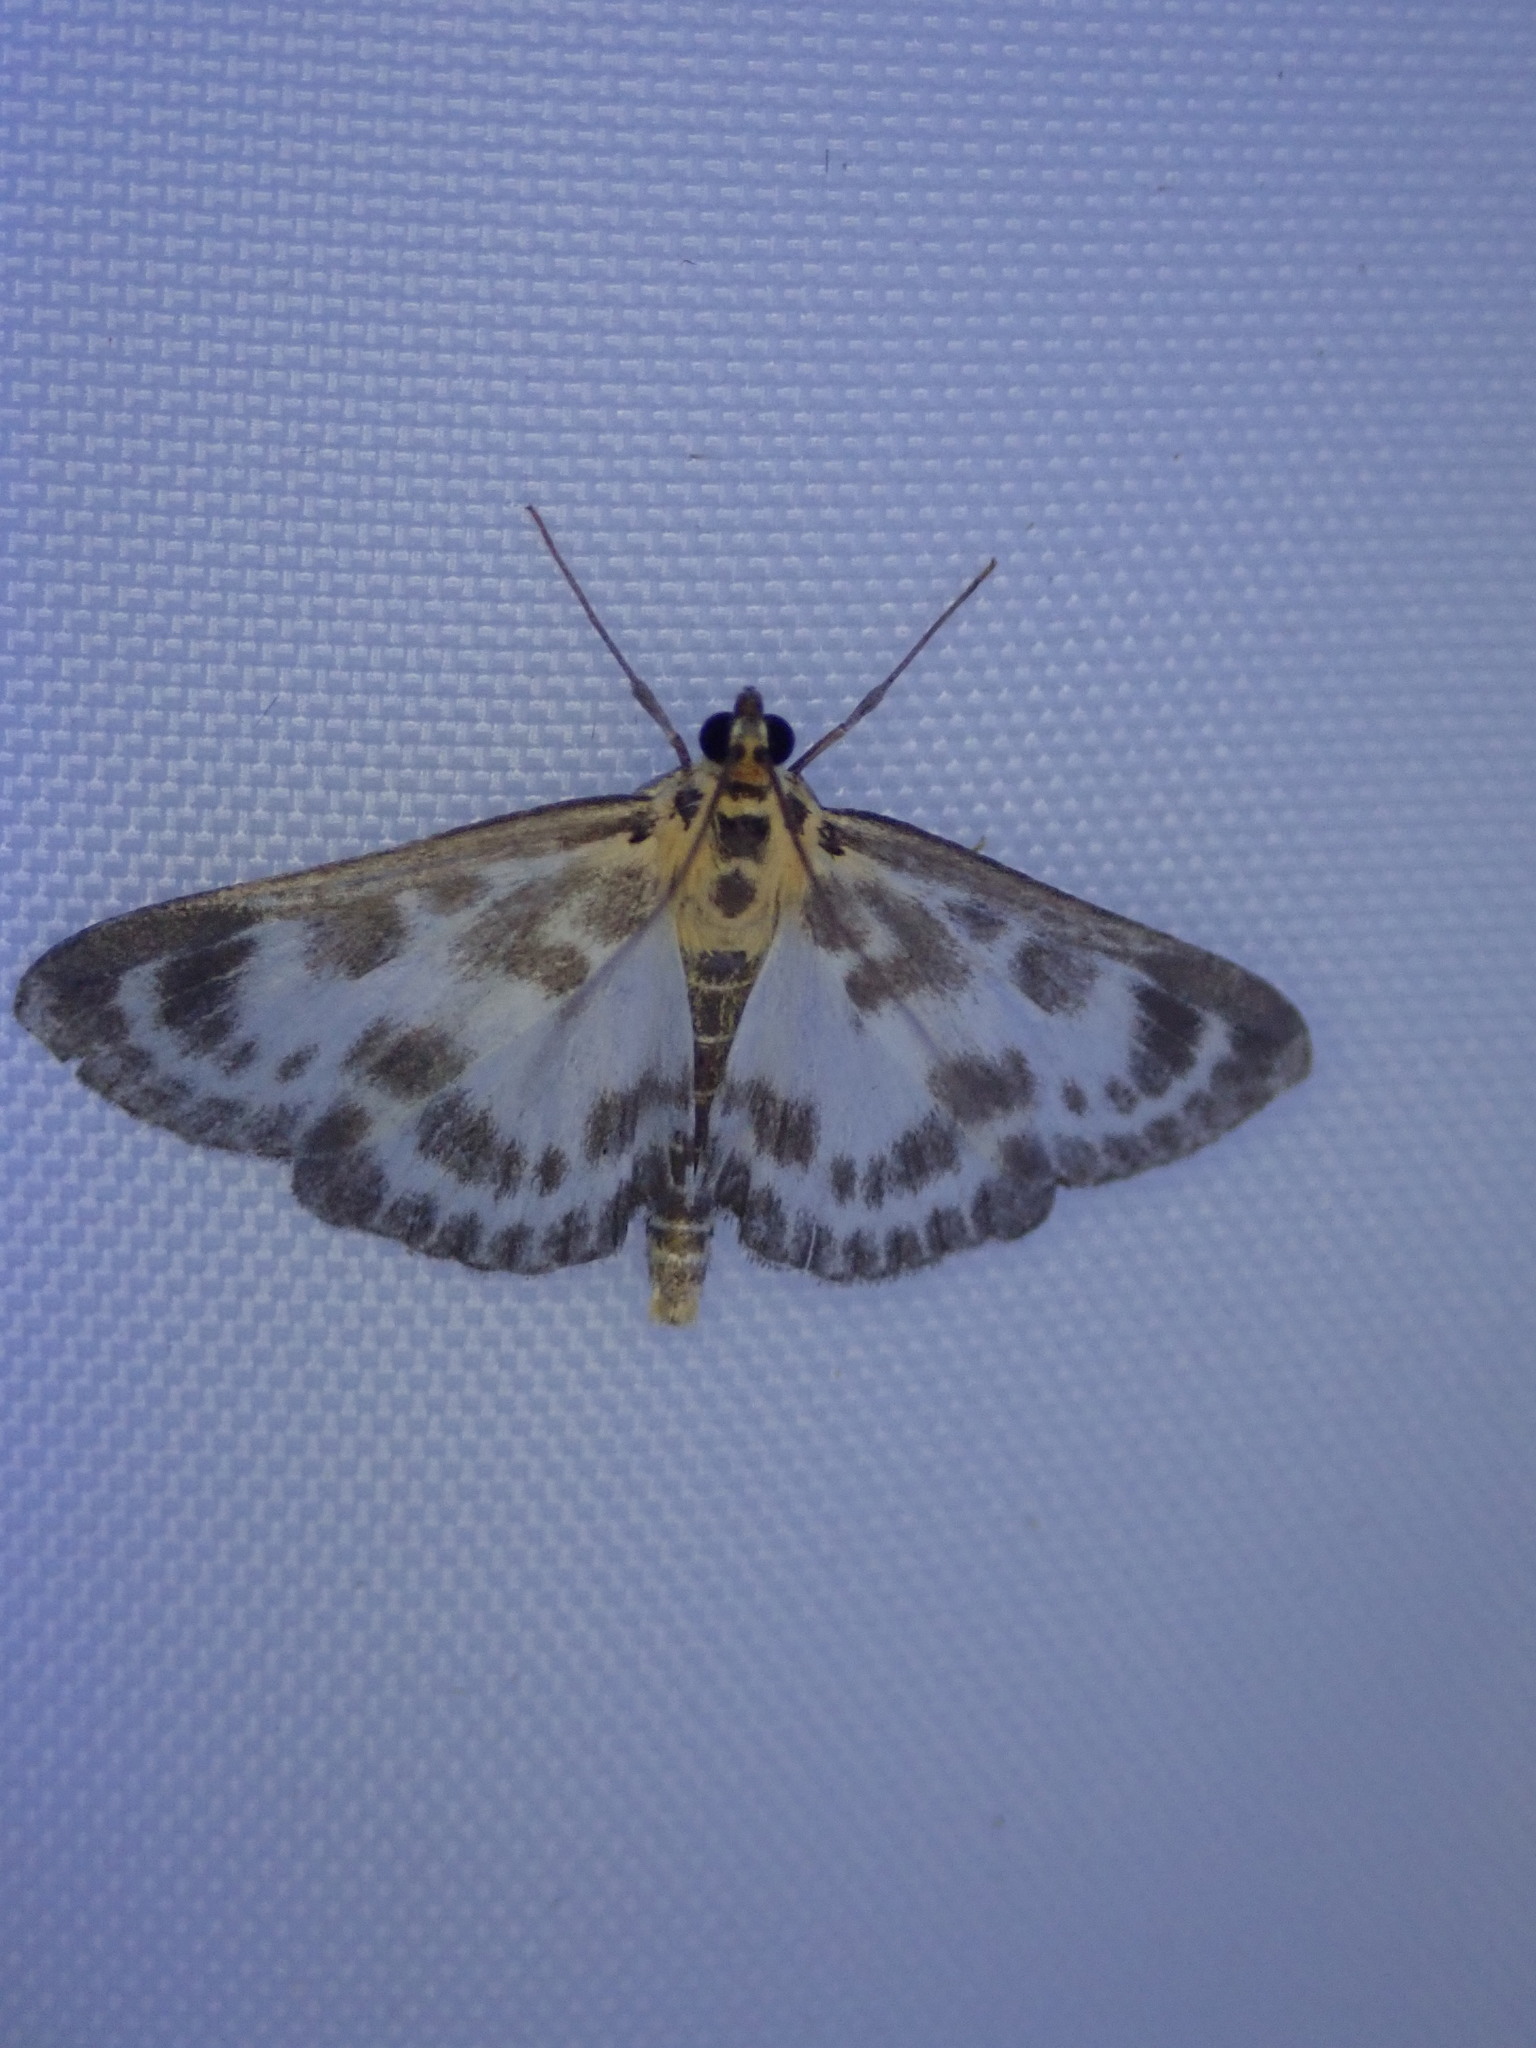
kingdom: Animalia
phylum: Arthropoda
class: Insecta
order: Lepidoptera
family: Crambidae
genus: Anania
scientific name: Anania hortulata
